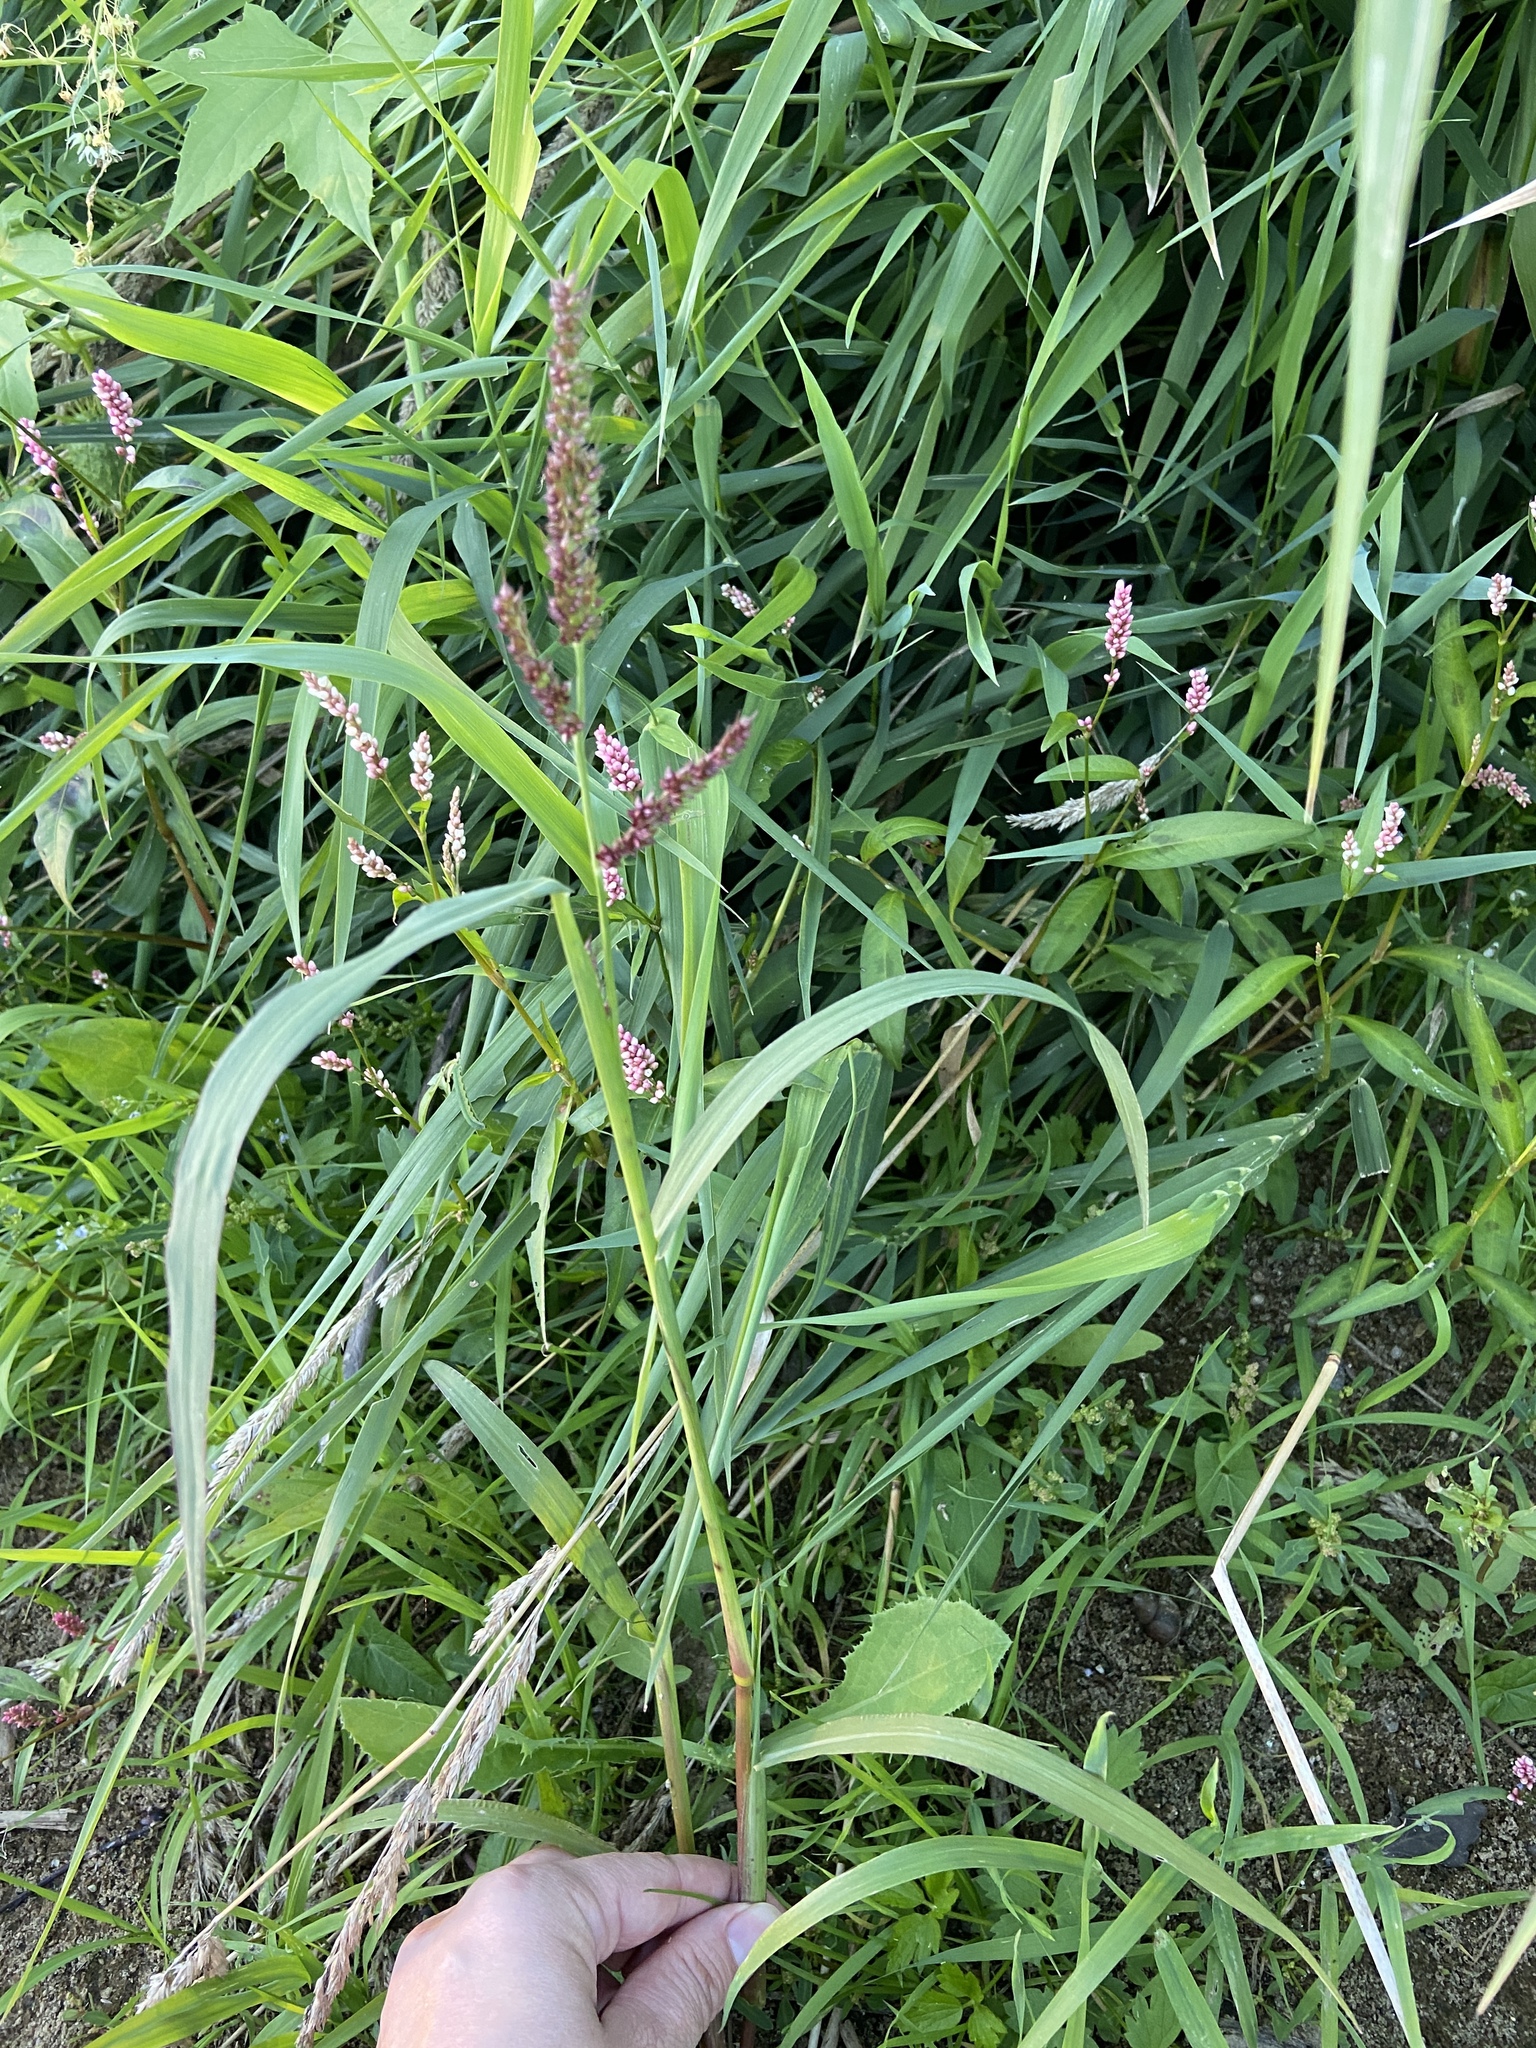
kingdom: Plantae
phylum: Tracheophyta
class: Liliopsida
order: Poales
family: Poaceae
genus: Echinochloa
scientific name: Echinochloa crus-galli
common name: Cockspur
